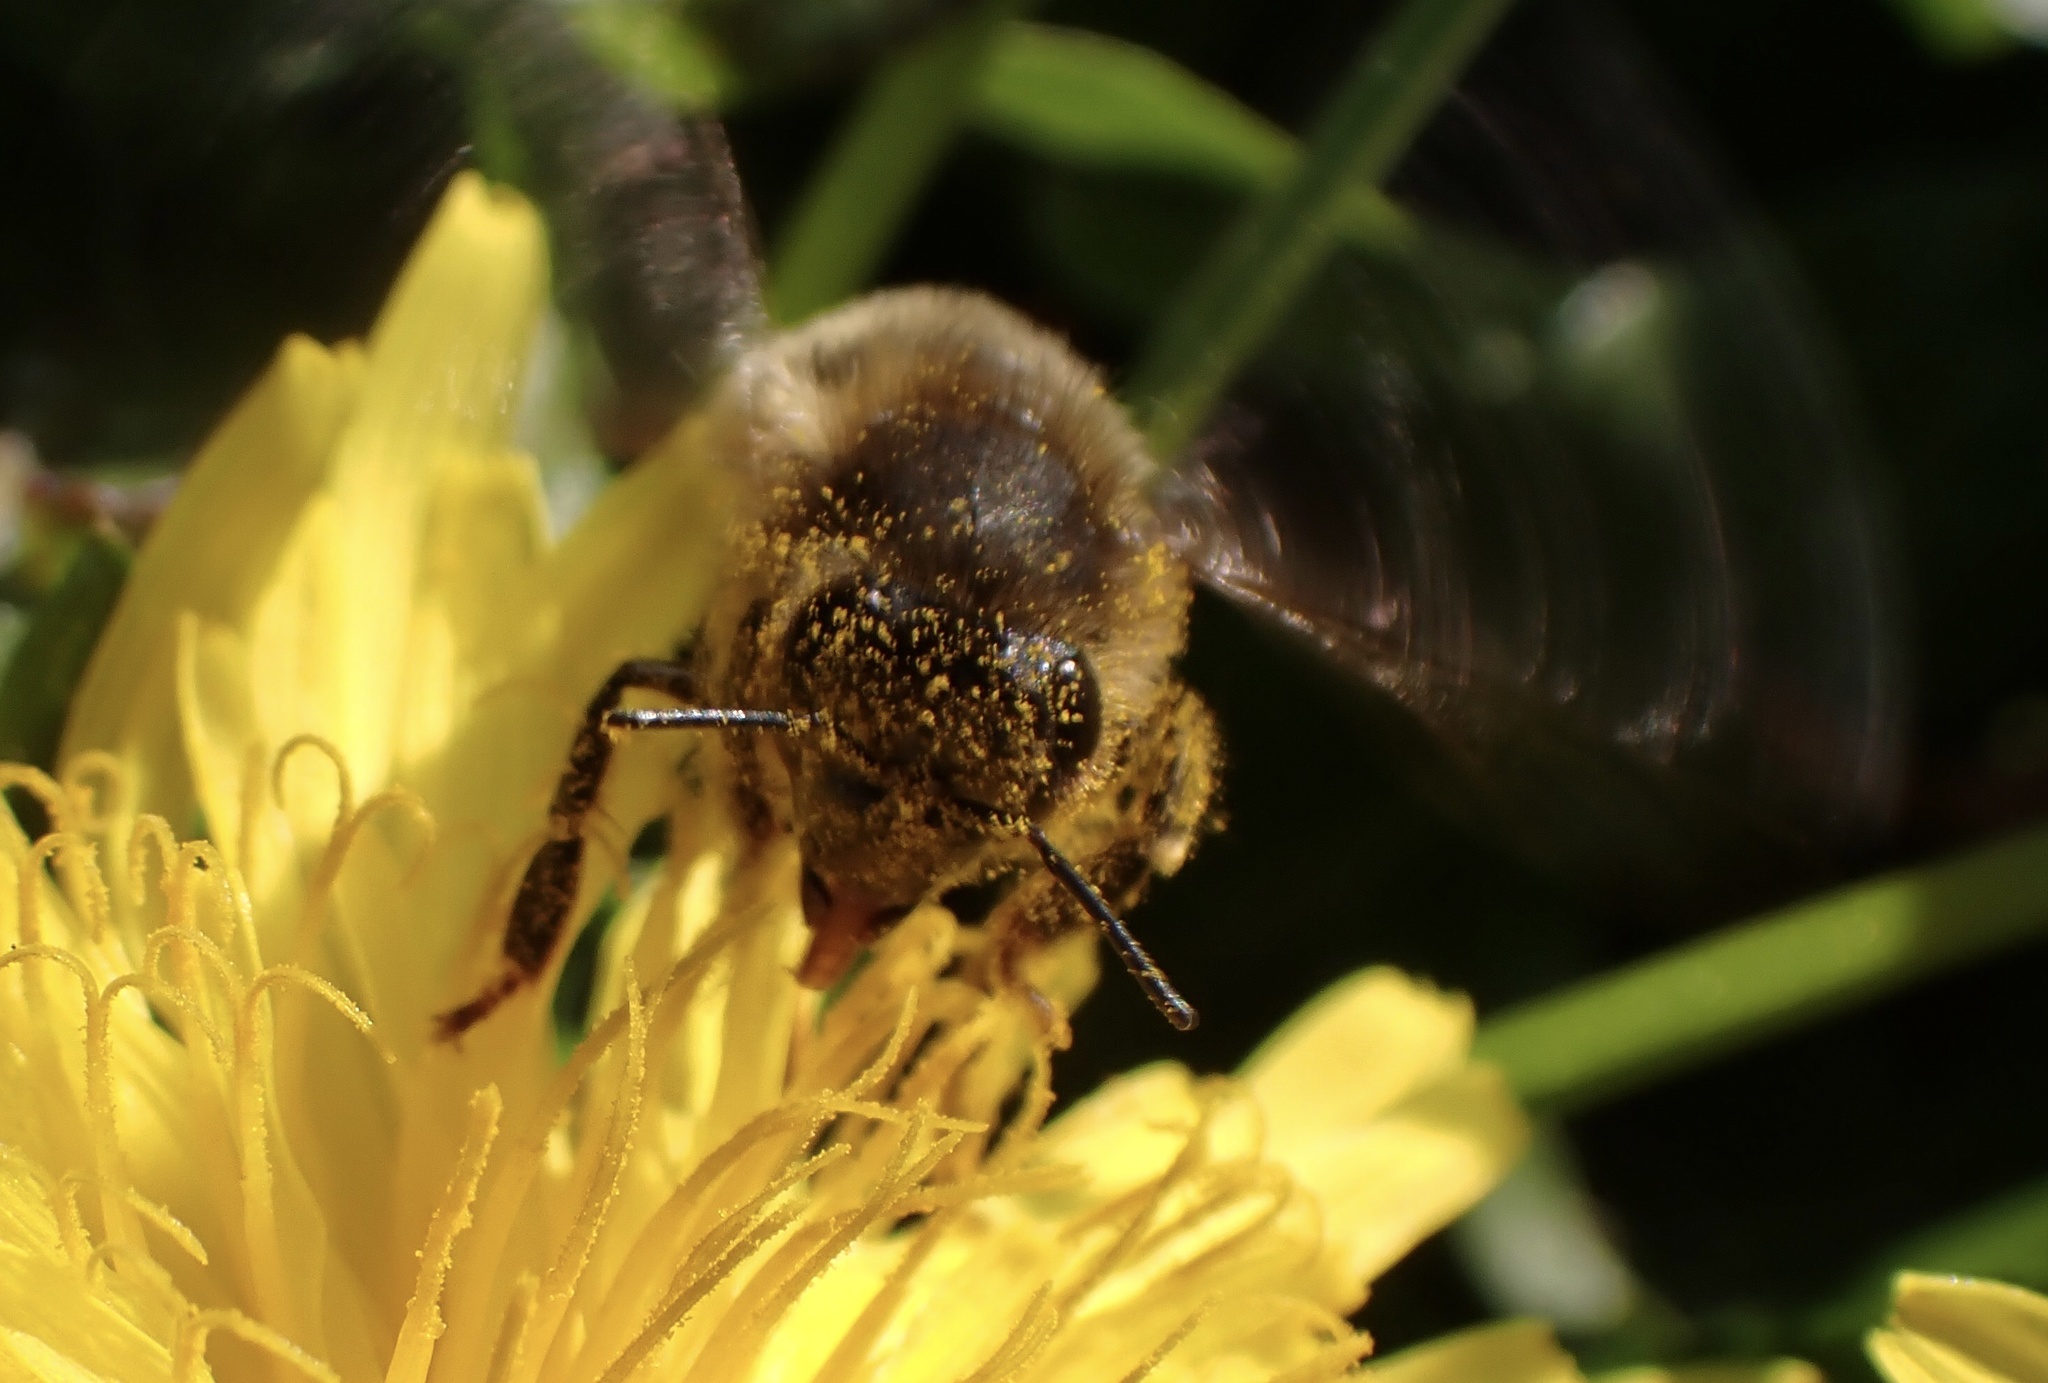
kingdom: Animalia
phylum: Arthropoda
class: Insecta
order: Hymenoptera
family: Apidae
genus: Apis
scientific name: Apis mellifera
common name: Honey bee
